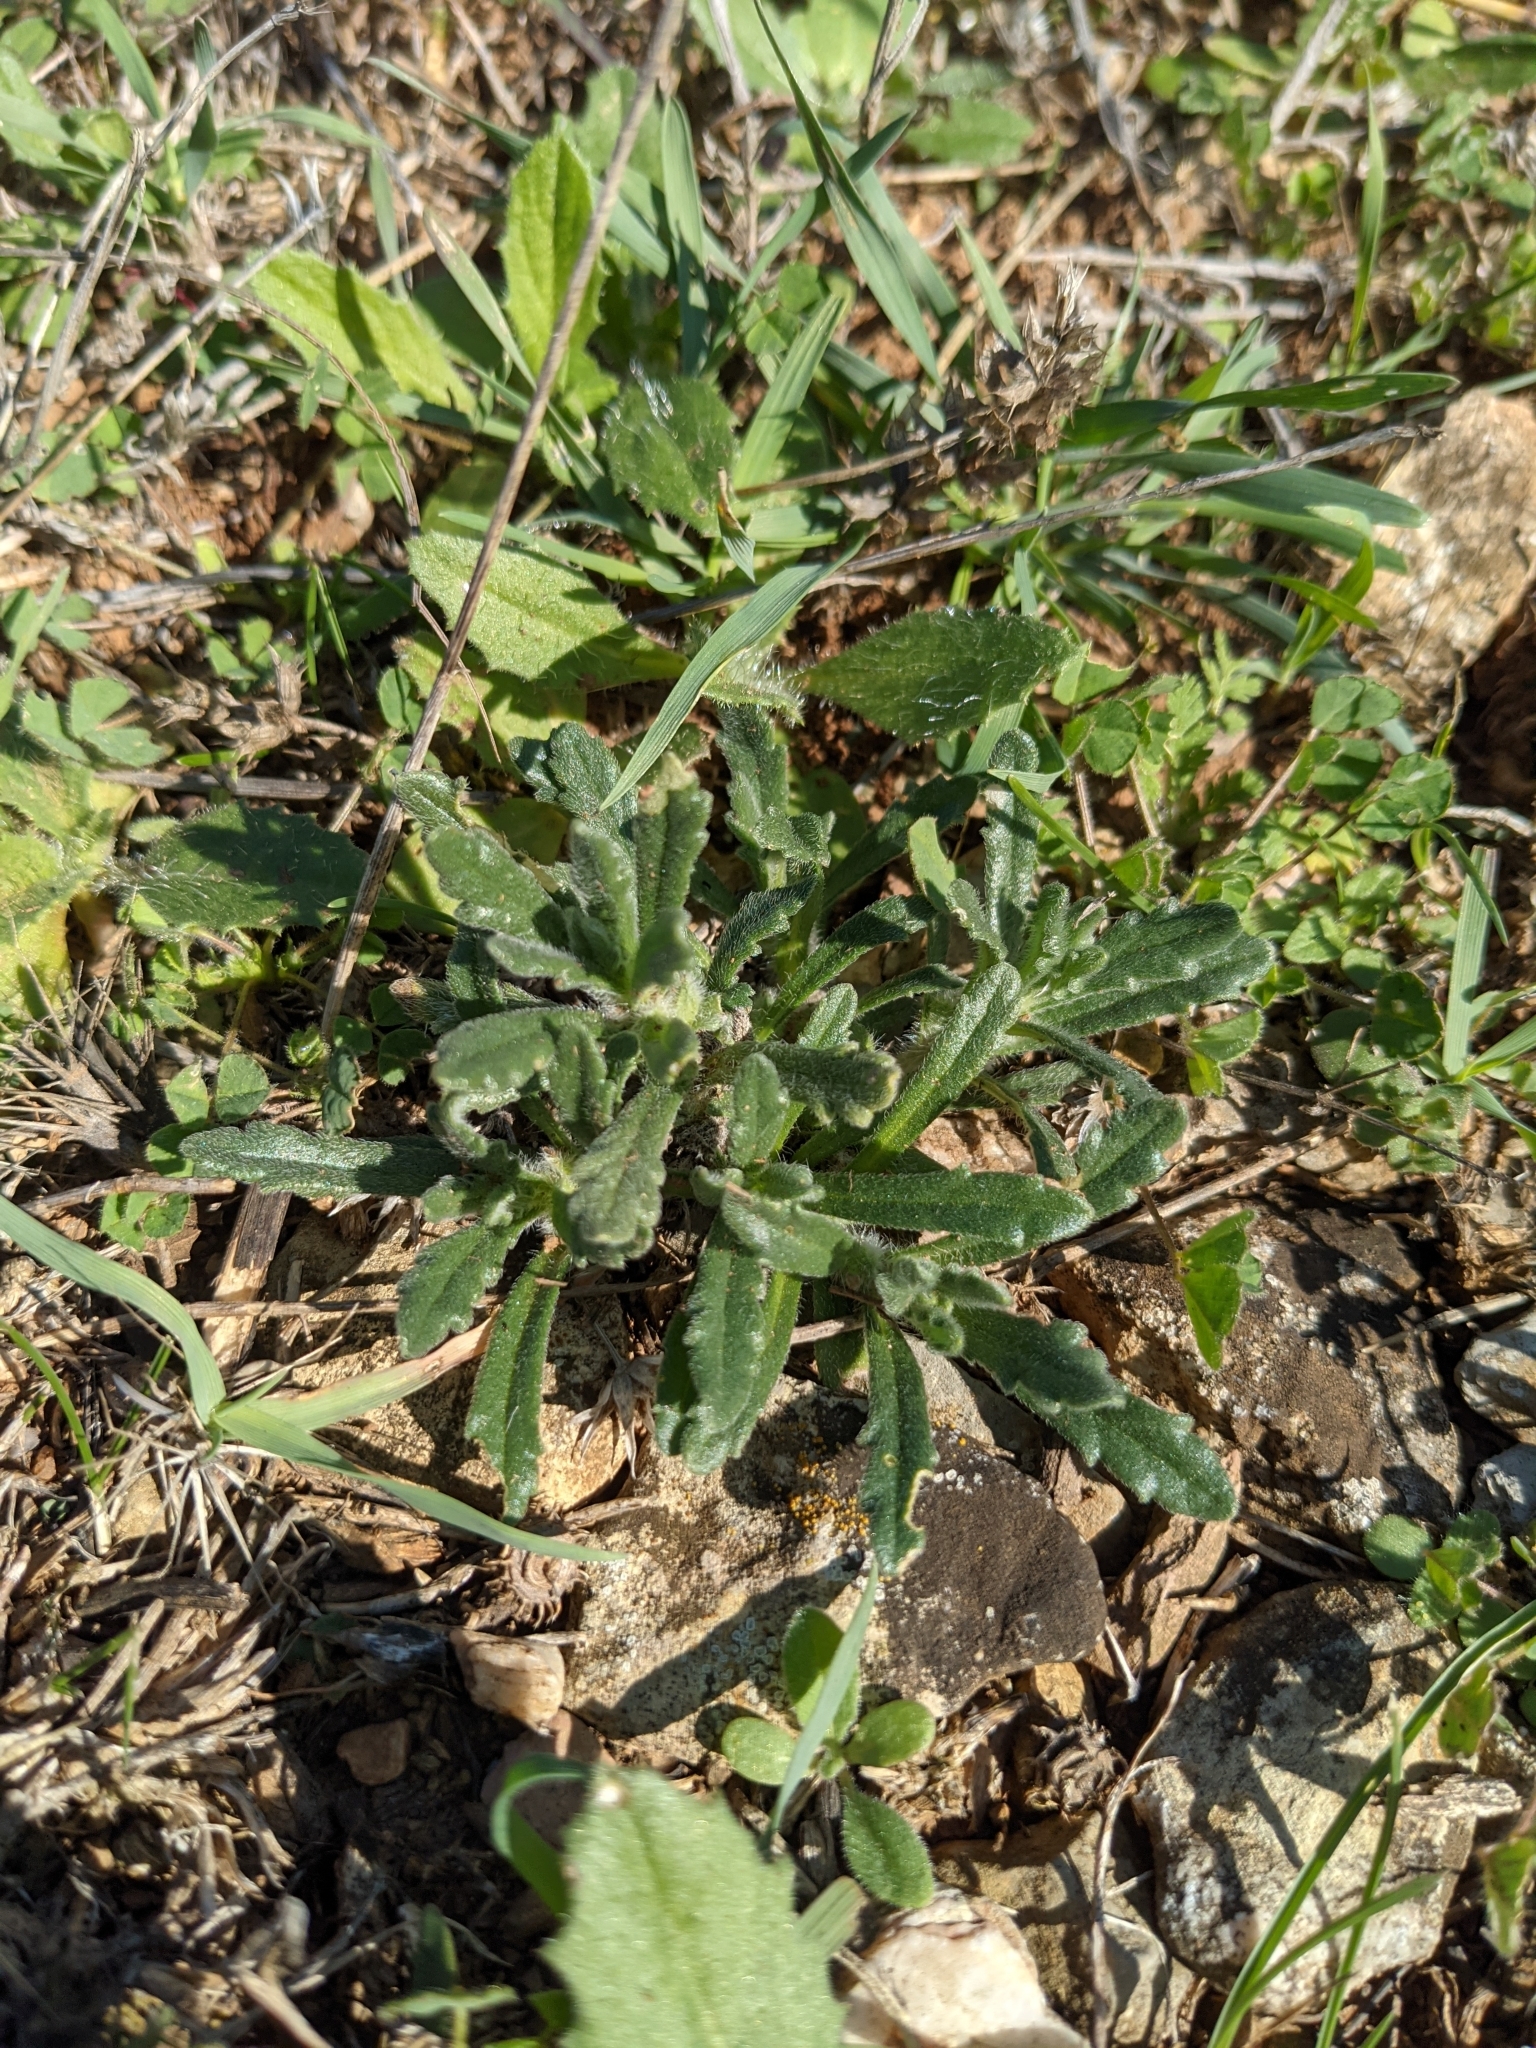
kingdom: Plantae
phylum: Tracheophyta
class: Magnoliopsida
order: Lamiales
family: Lamiaceae
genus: Ajuga
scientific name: Ajuga iva
